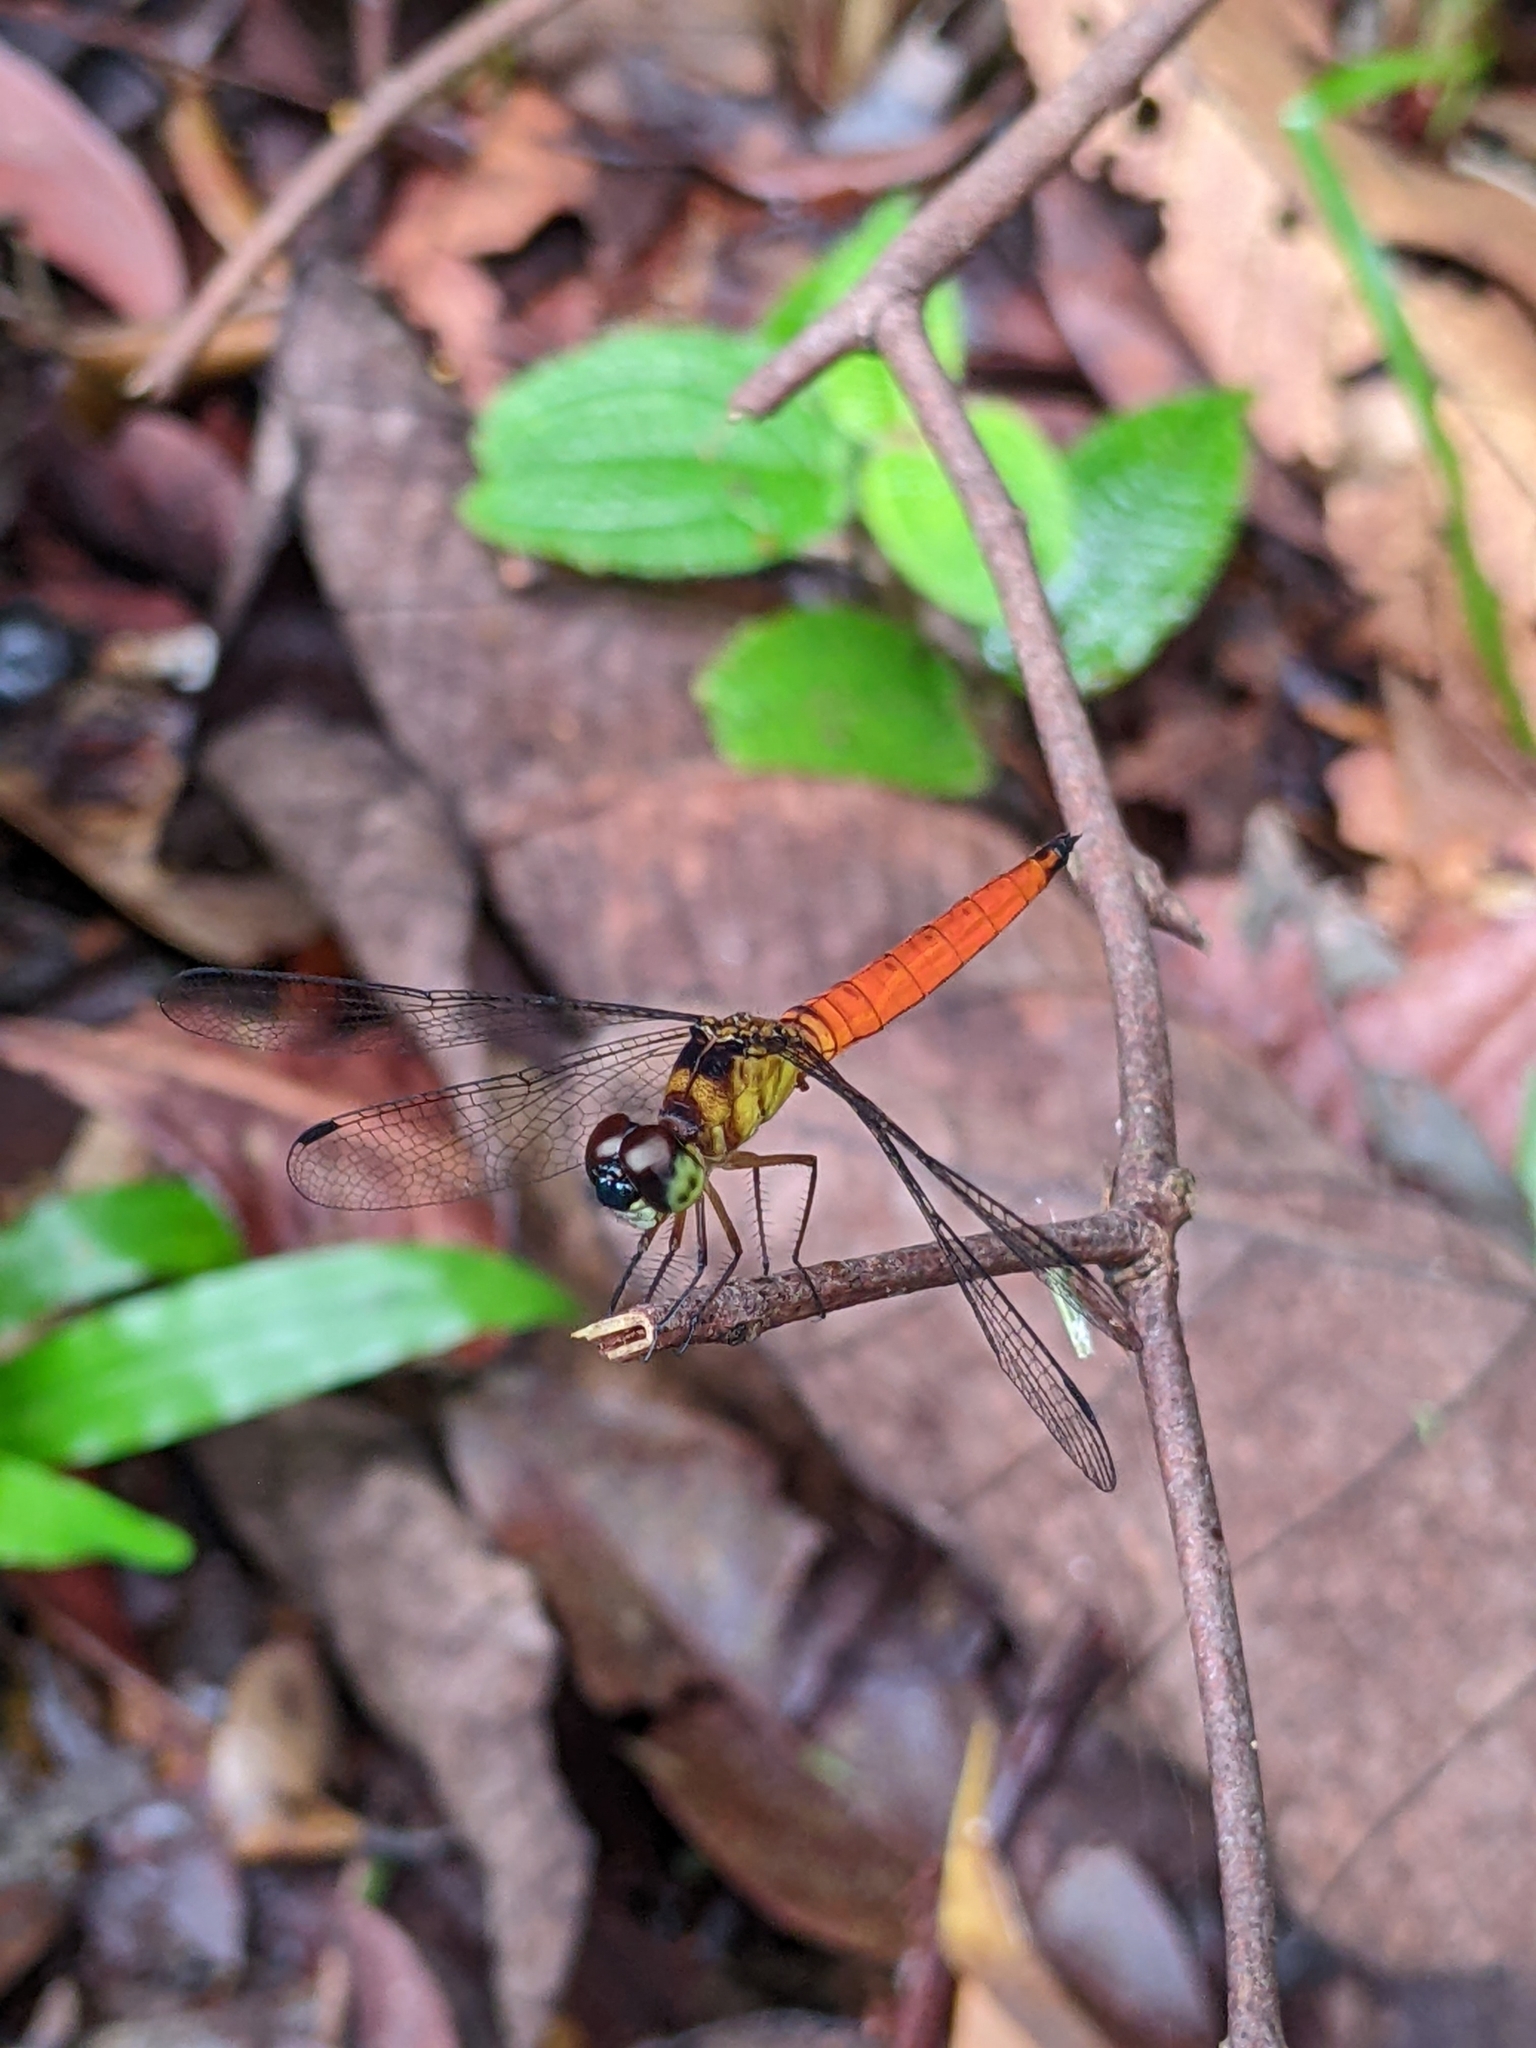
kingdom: Animalia
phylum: Arthropoda
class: Insecta
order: Odonata
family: Libellulidae
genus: Orchithemis
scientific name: Orchithemis pulcherrima
